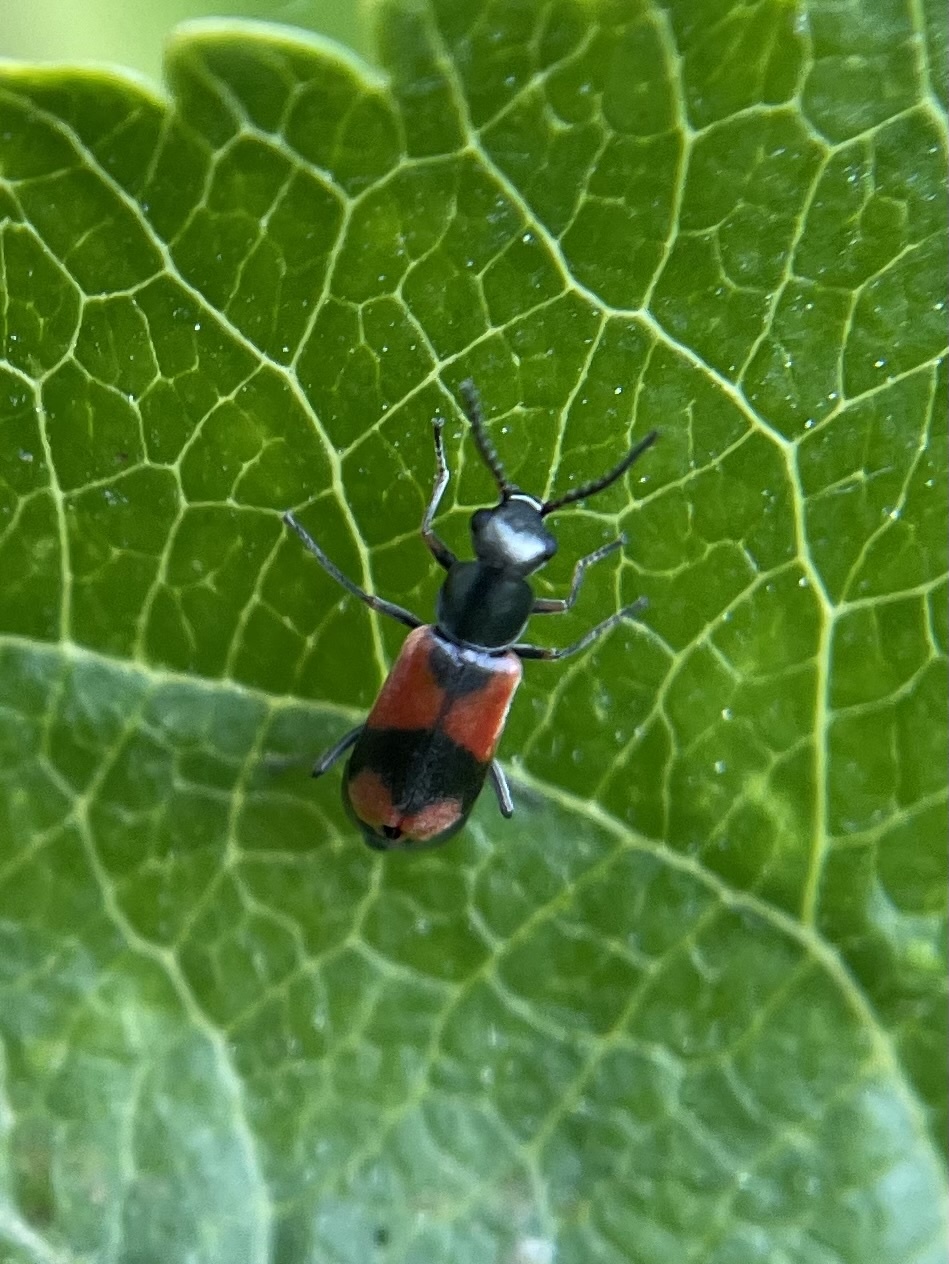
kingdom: Animalia
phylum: Arthropoda
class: Insecta
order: Coleoptera
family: Melyridae
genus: Anthocomus
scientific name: Anthocomus equestris
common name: Black-banded soft-winged flower beetle
